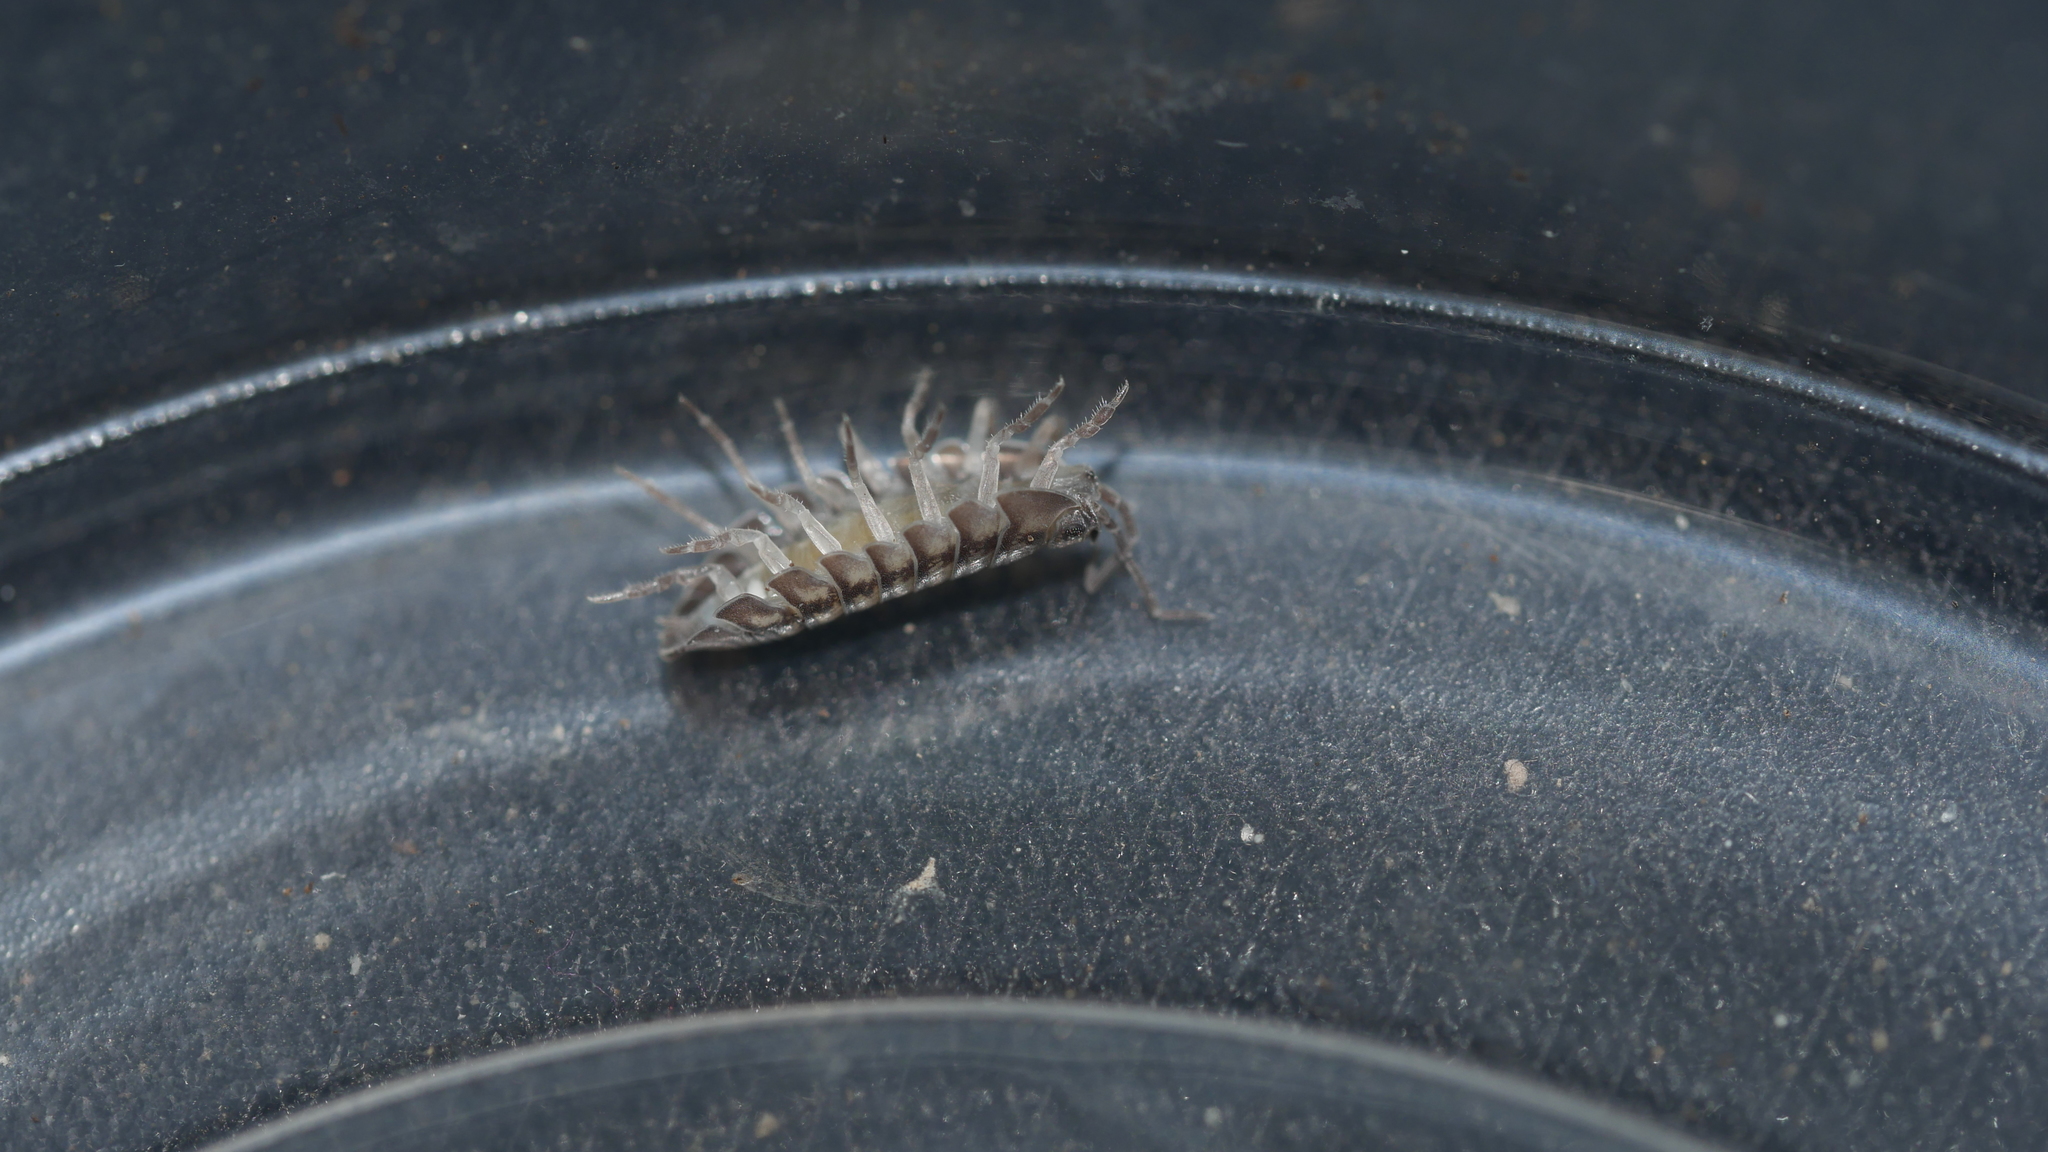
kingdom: Animalia
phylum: Arthropoda
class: Malacostraca
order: Isopoda
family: Armadillidiidae
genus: Armadillidium
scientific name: Armadillidium nasatum
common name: Isopod
